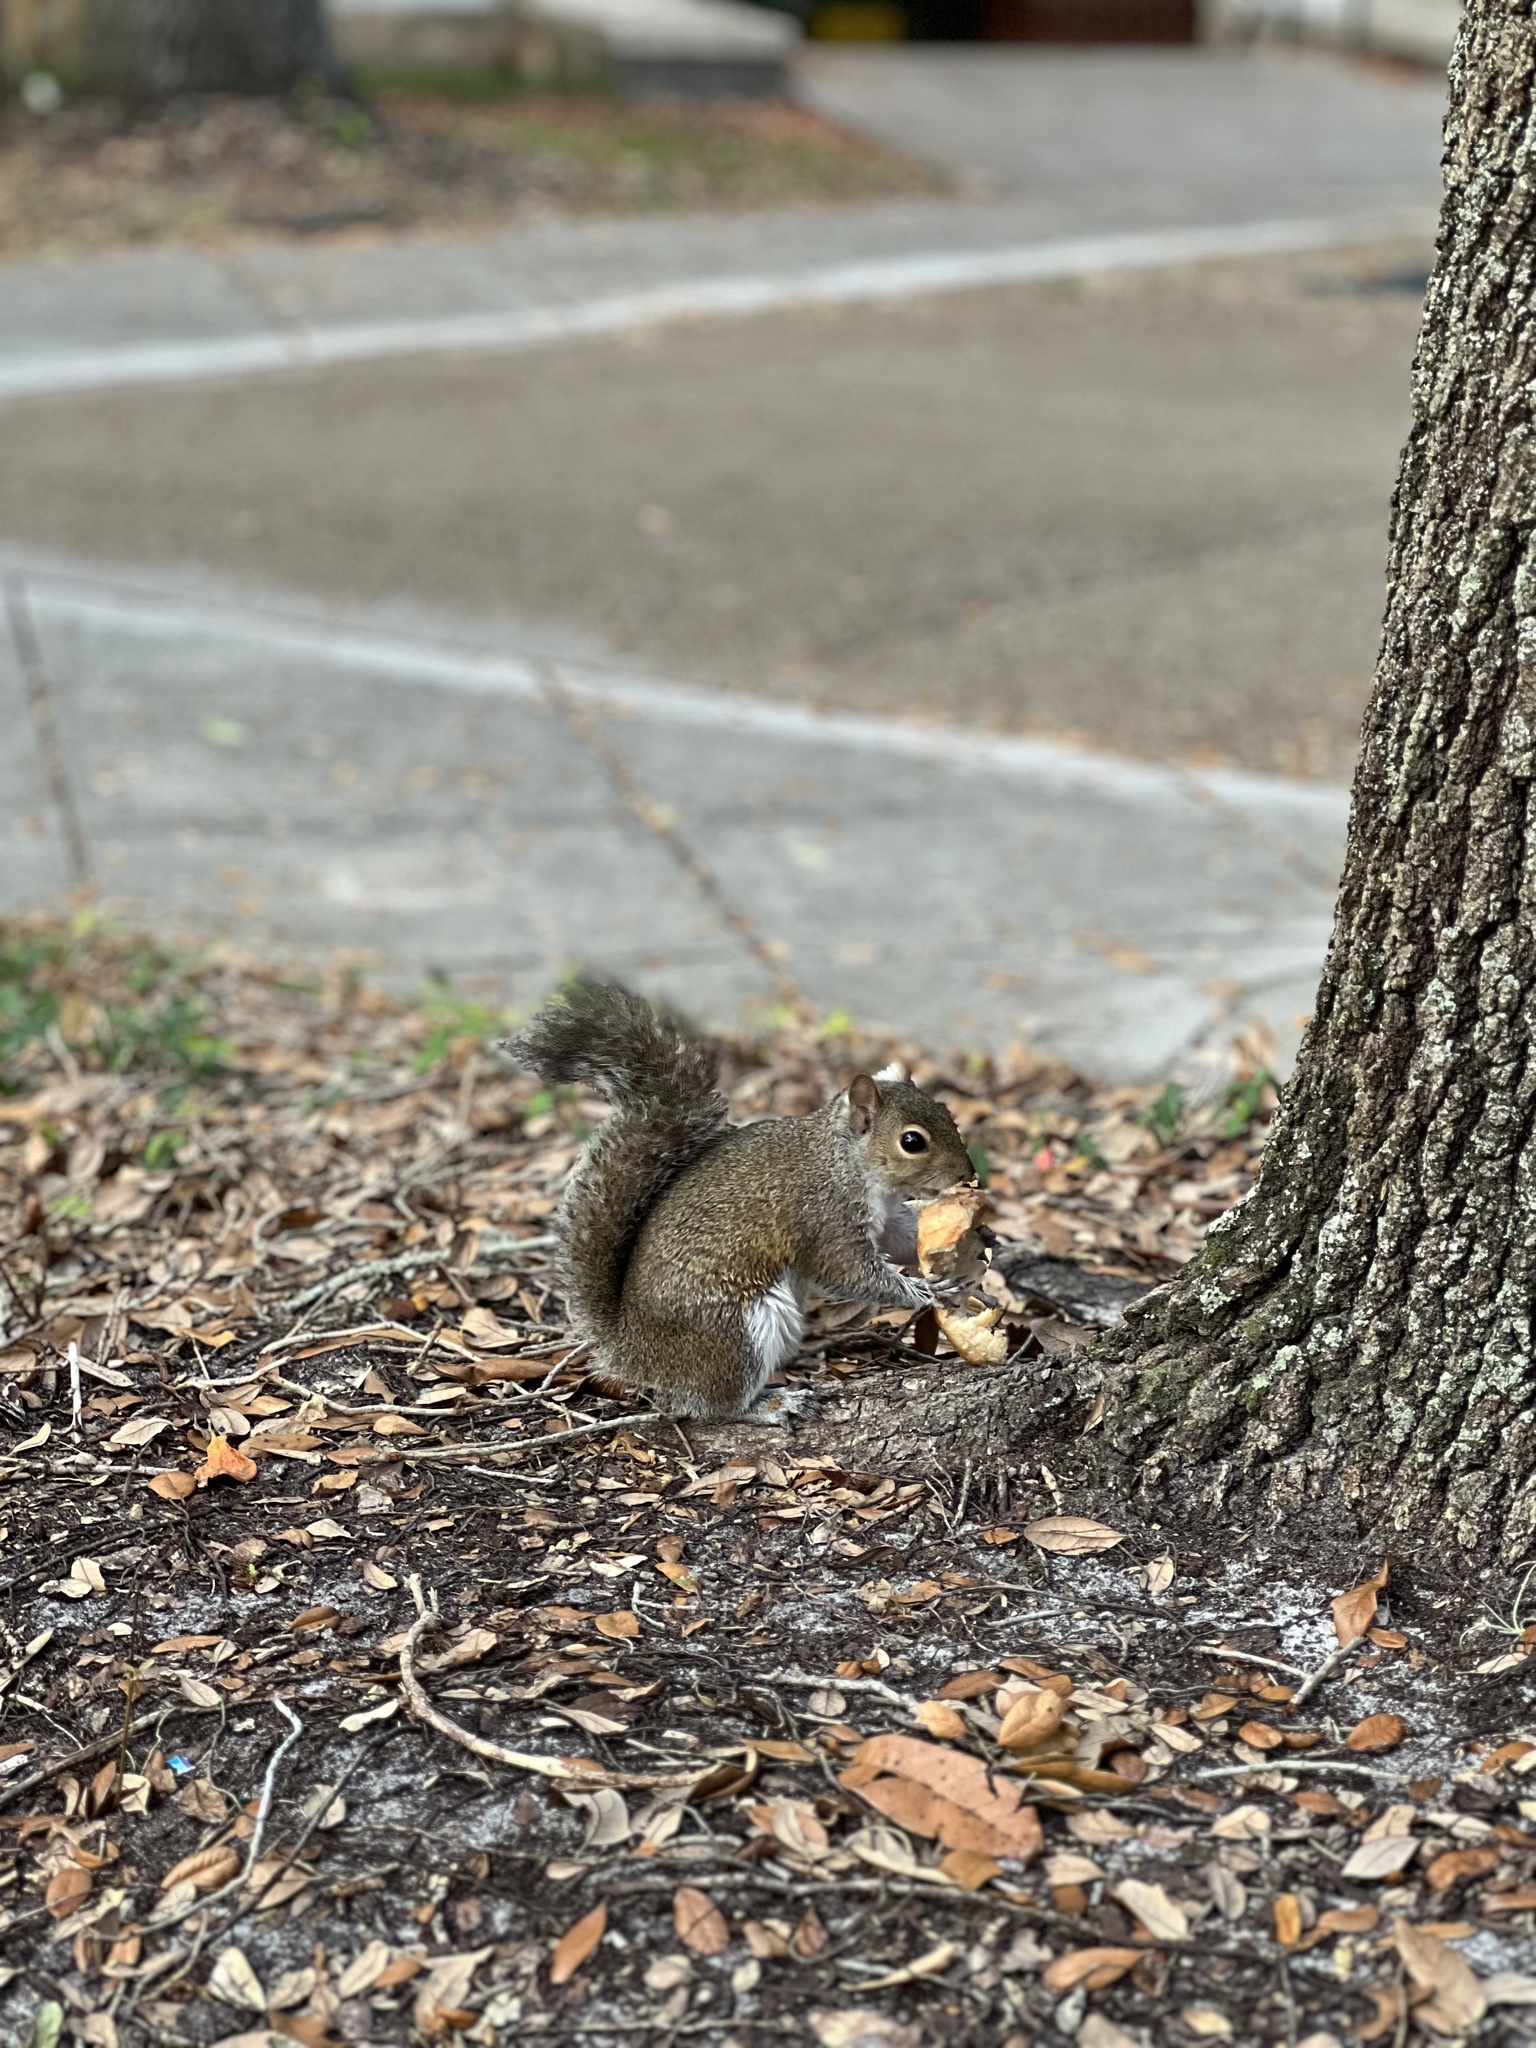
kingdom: Animalia
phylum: Chordata
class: Mammalia
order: Rodentia
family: Sciuridae
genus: Sciurus
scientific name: Sciurus carolinensis
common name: Eastern gray squirrel
